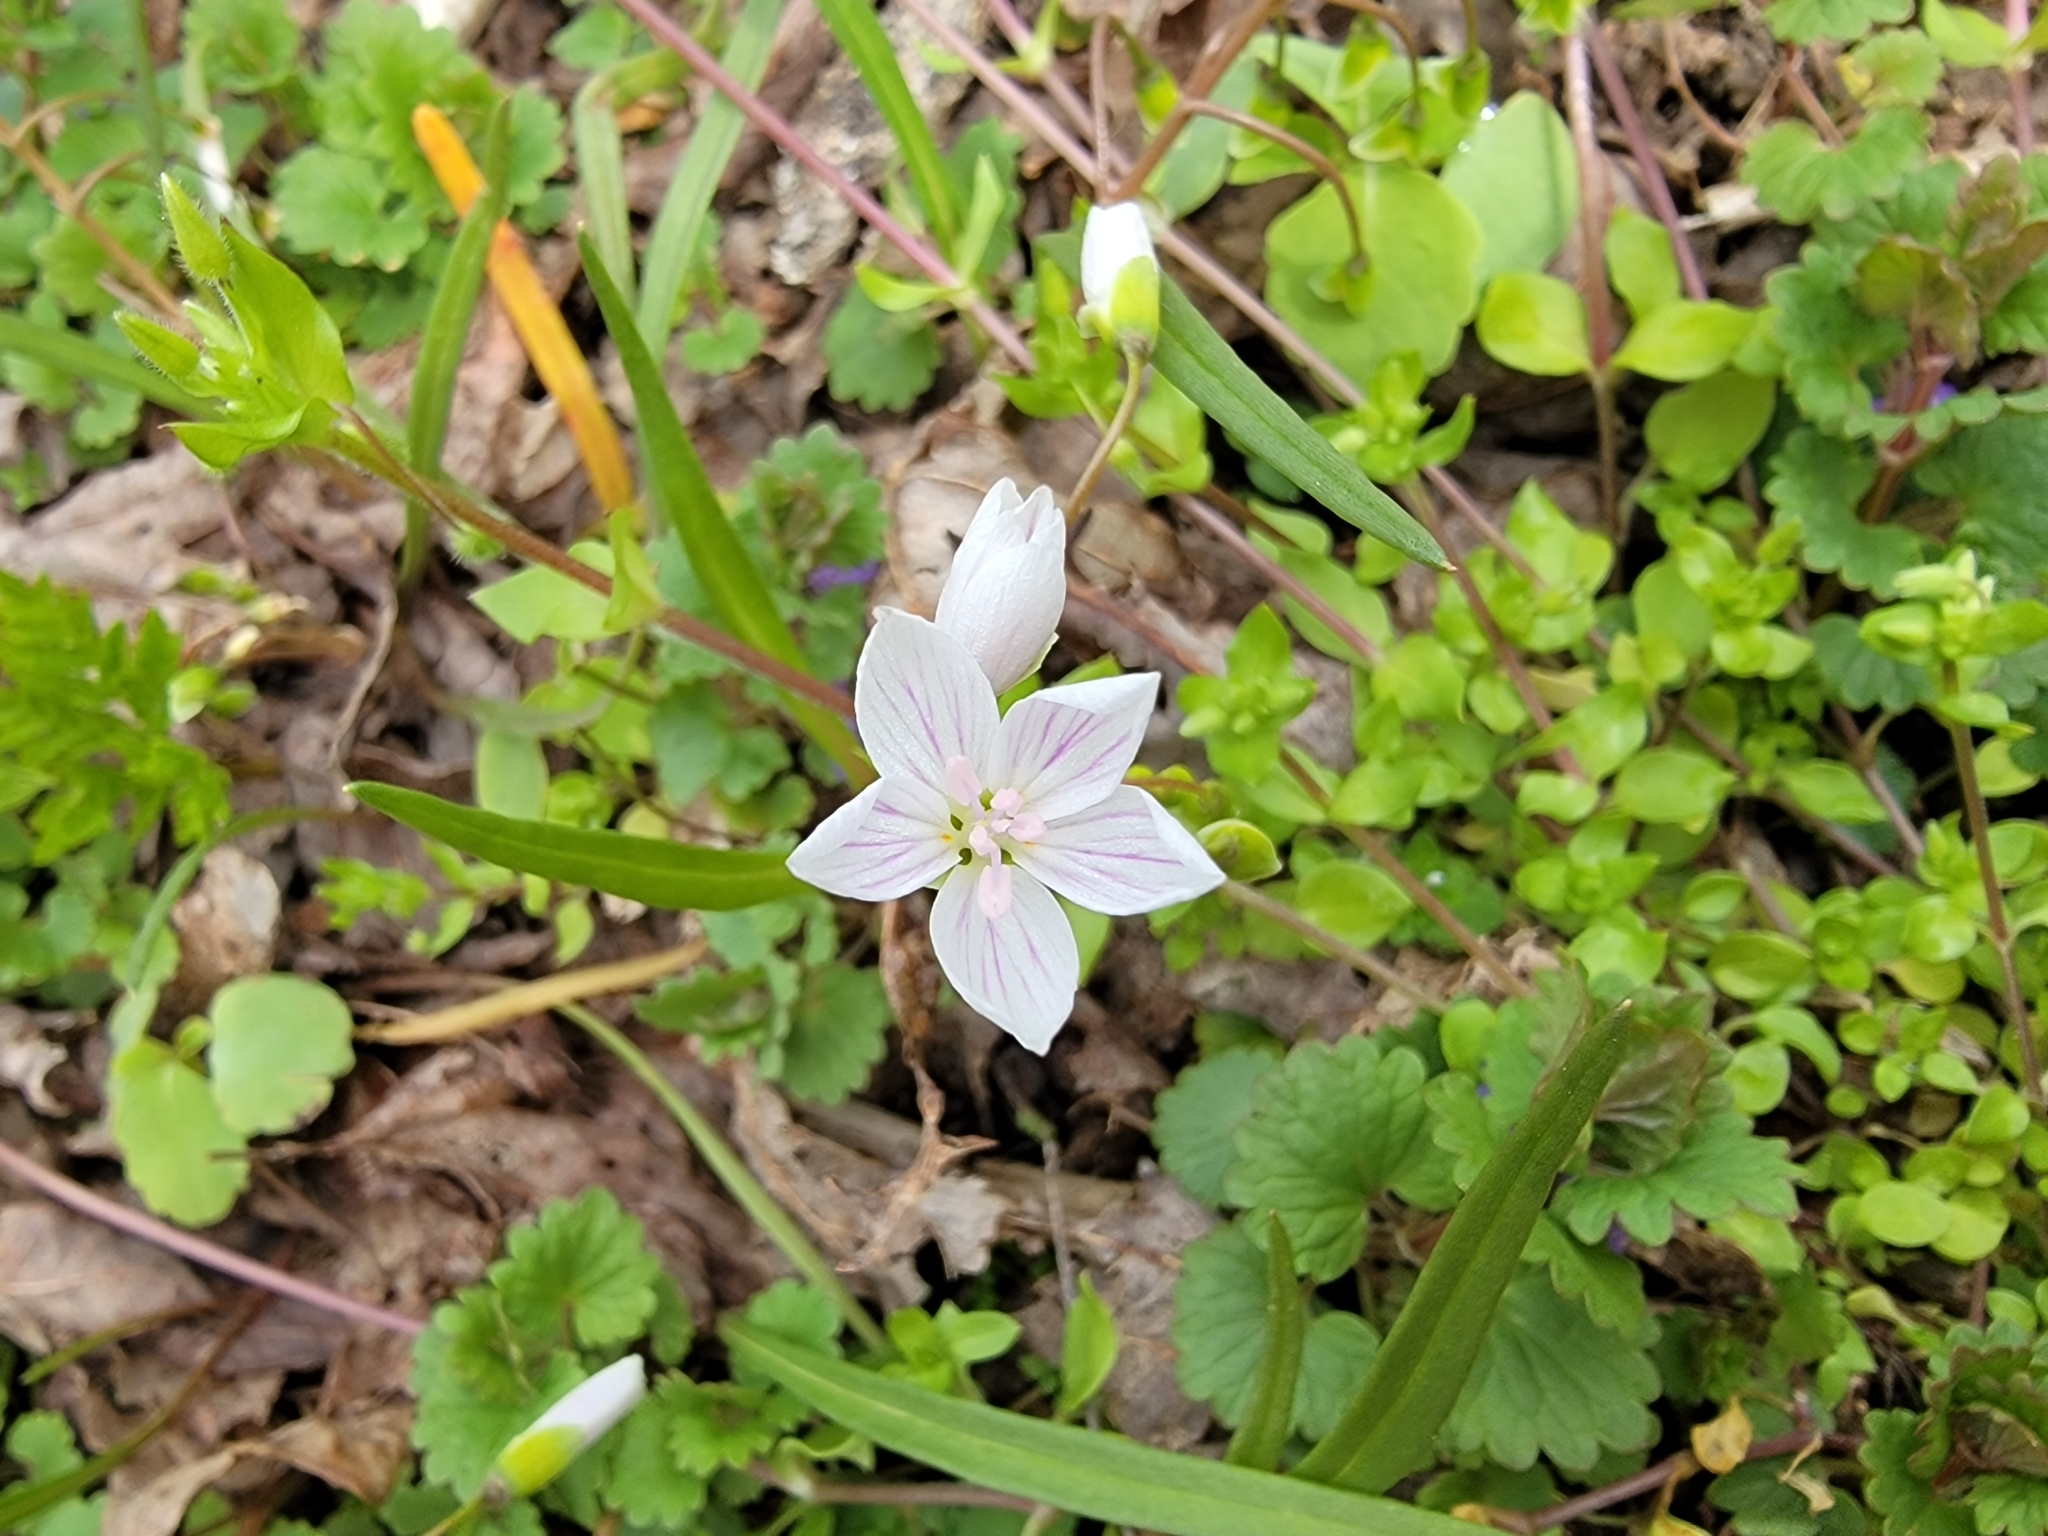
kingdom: Plantae
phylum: Tracheophyta
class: Magnoliopsida
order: Caryophyllales
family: Montiaceae
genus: Claytonia
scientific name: Claytonia virginica
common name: Virginia springbeauty
